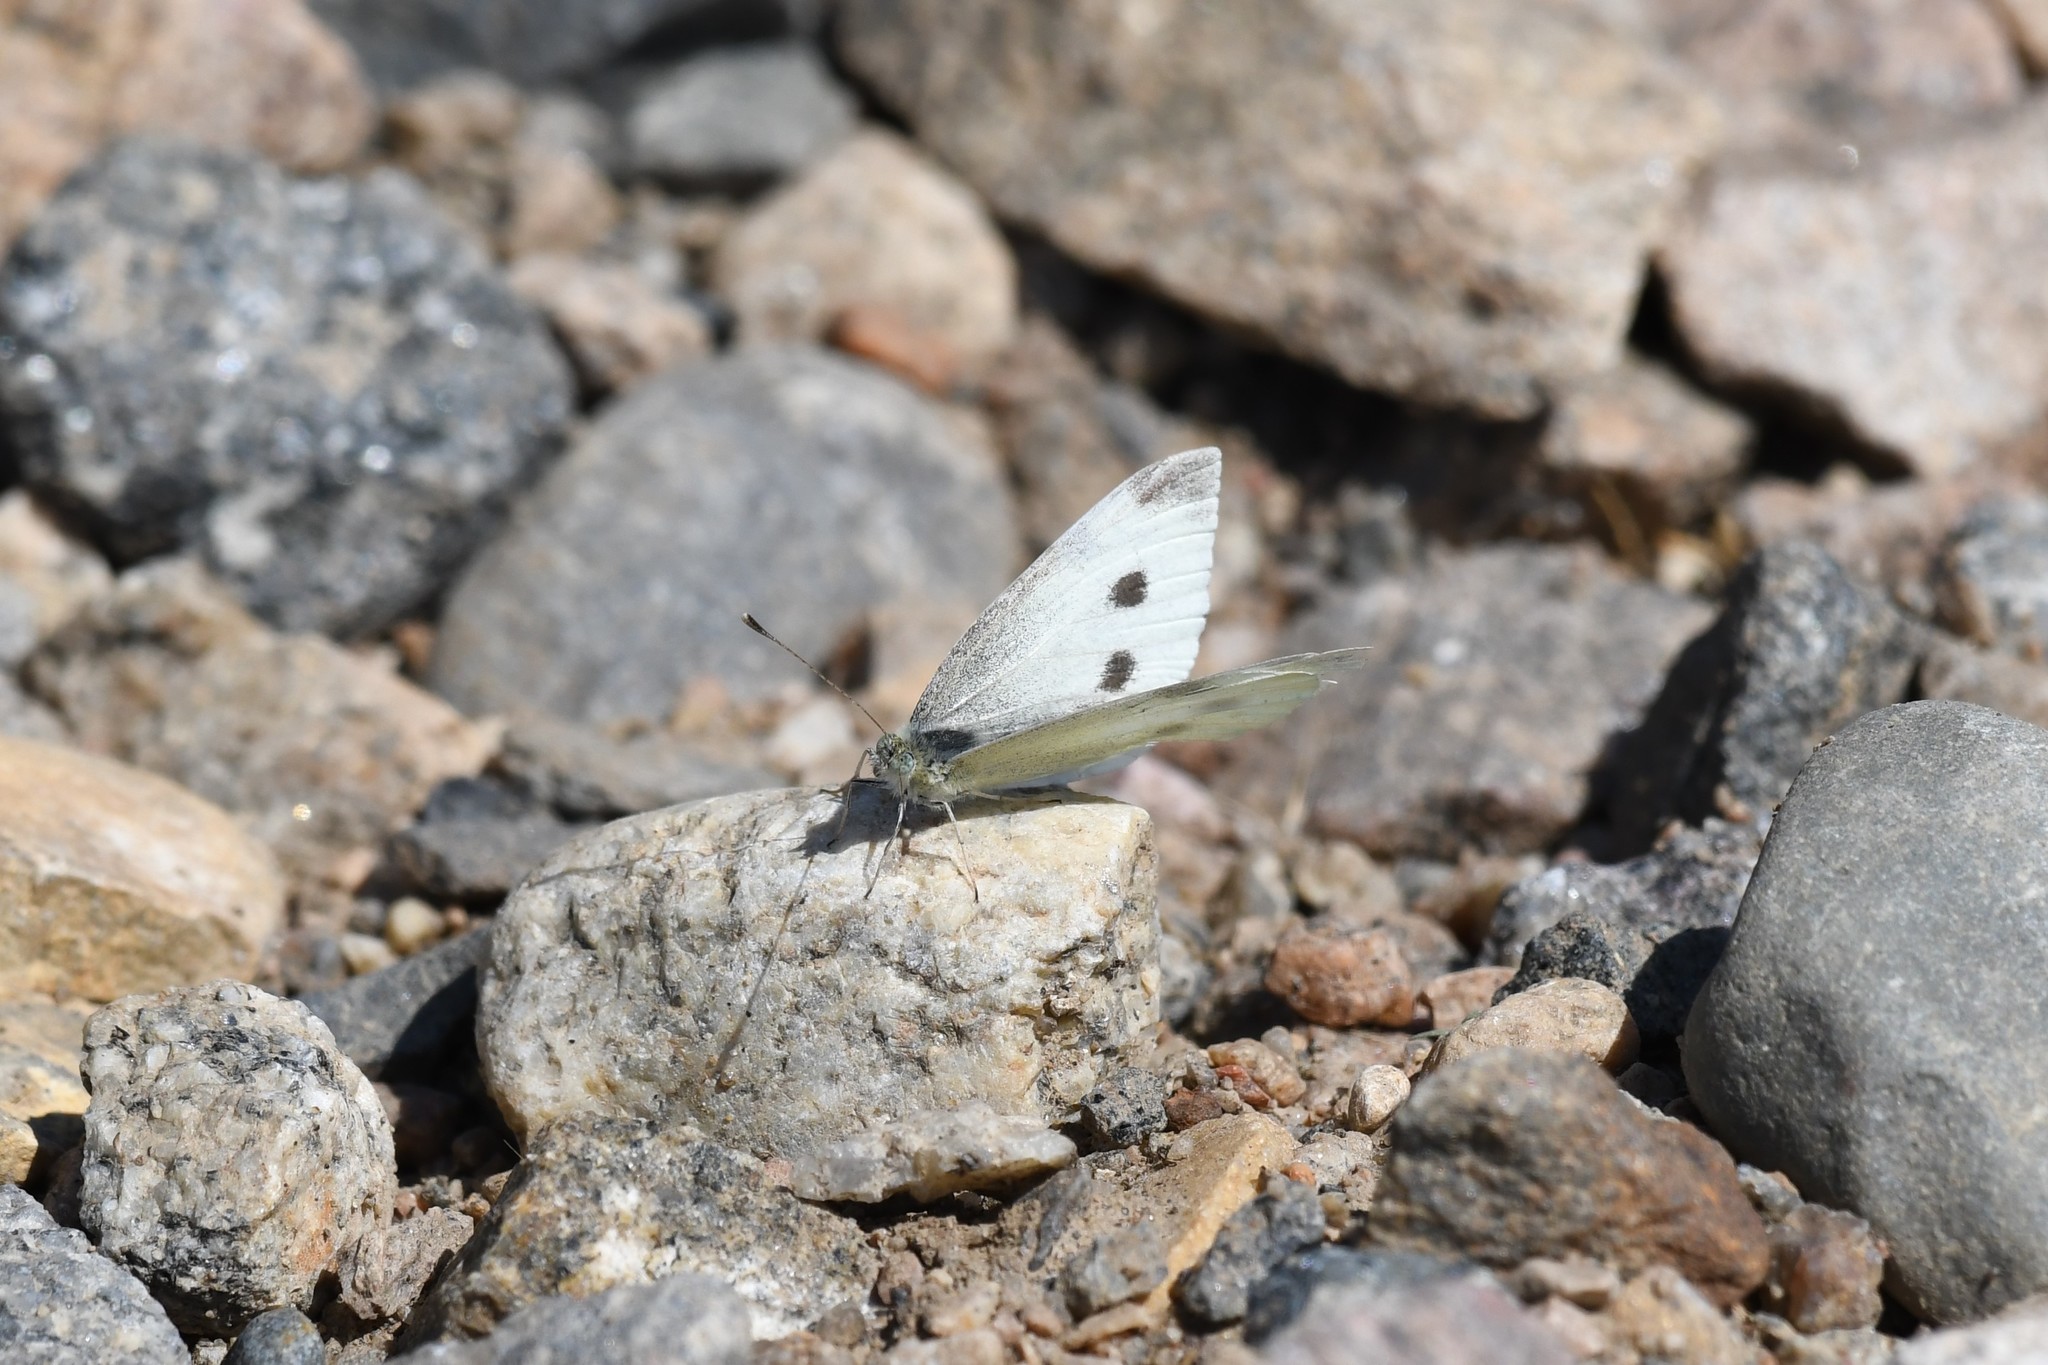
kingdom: Animalia
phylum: Arthropoda
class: Insecta
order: Lepidoptera
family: Pieridae
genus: Pieris
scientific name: Pieris rapae
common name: Small white
